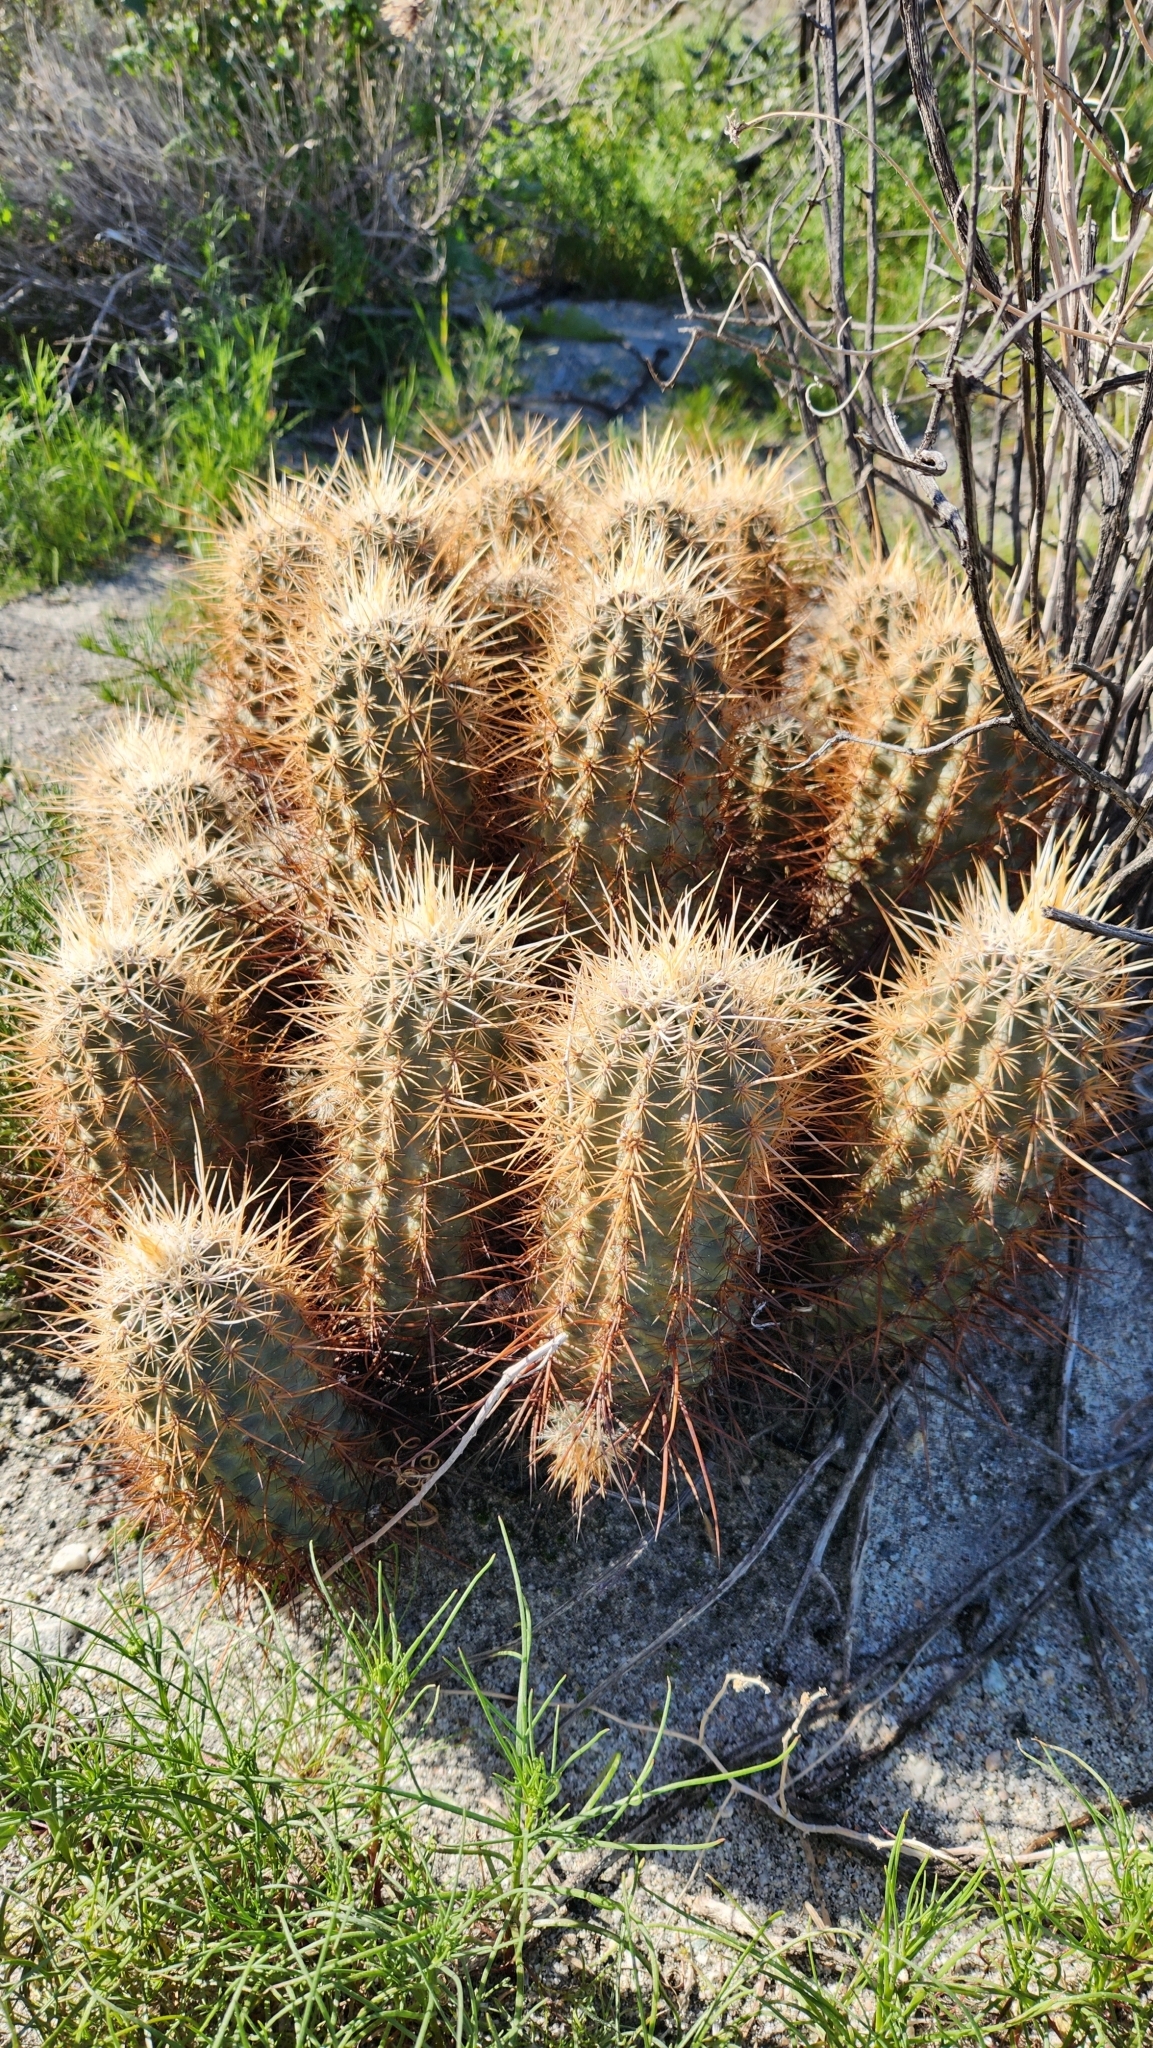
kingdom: Plantae
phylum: Tracheophyta
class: Magnoliopsida
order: Caryophyllales
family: Cactaceae
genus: Echinocereus
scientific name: Echinocereus engelmannii
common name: Engelmann's hedgehog cactus
